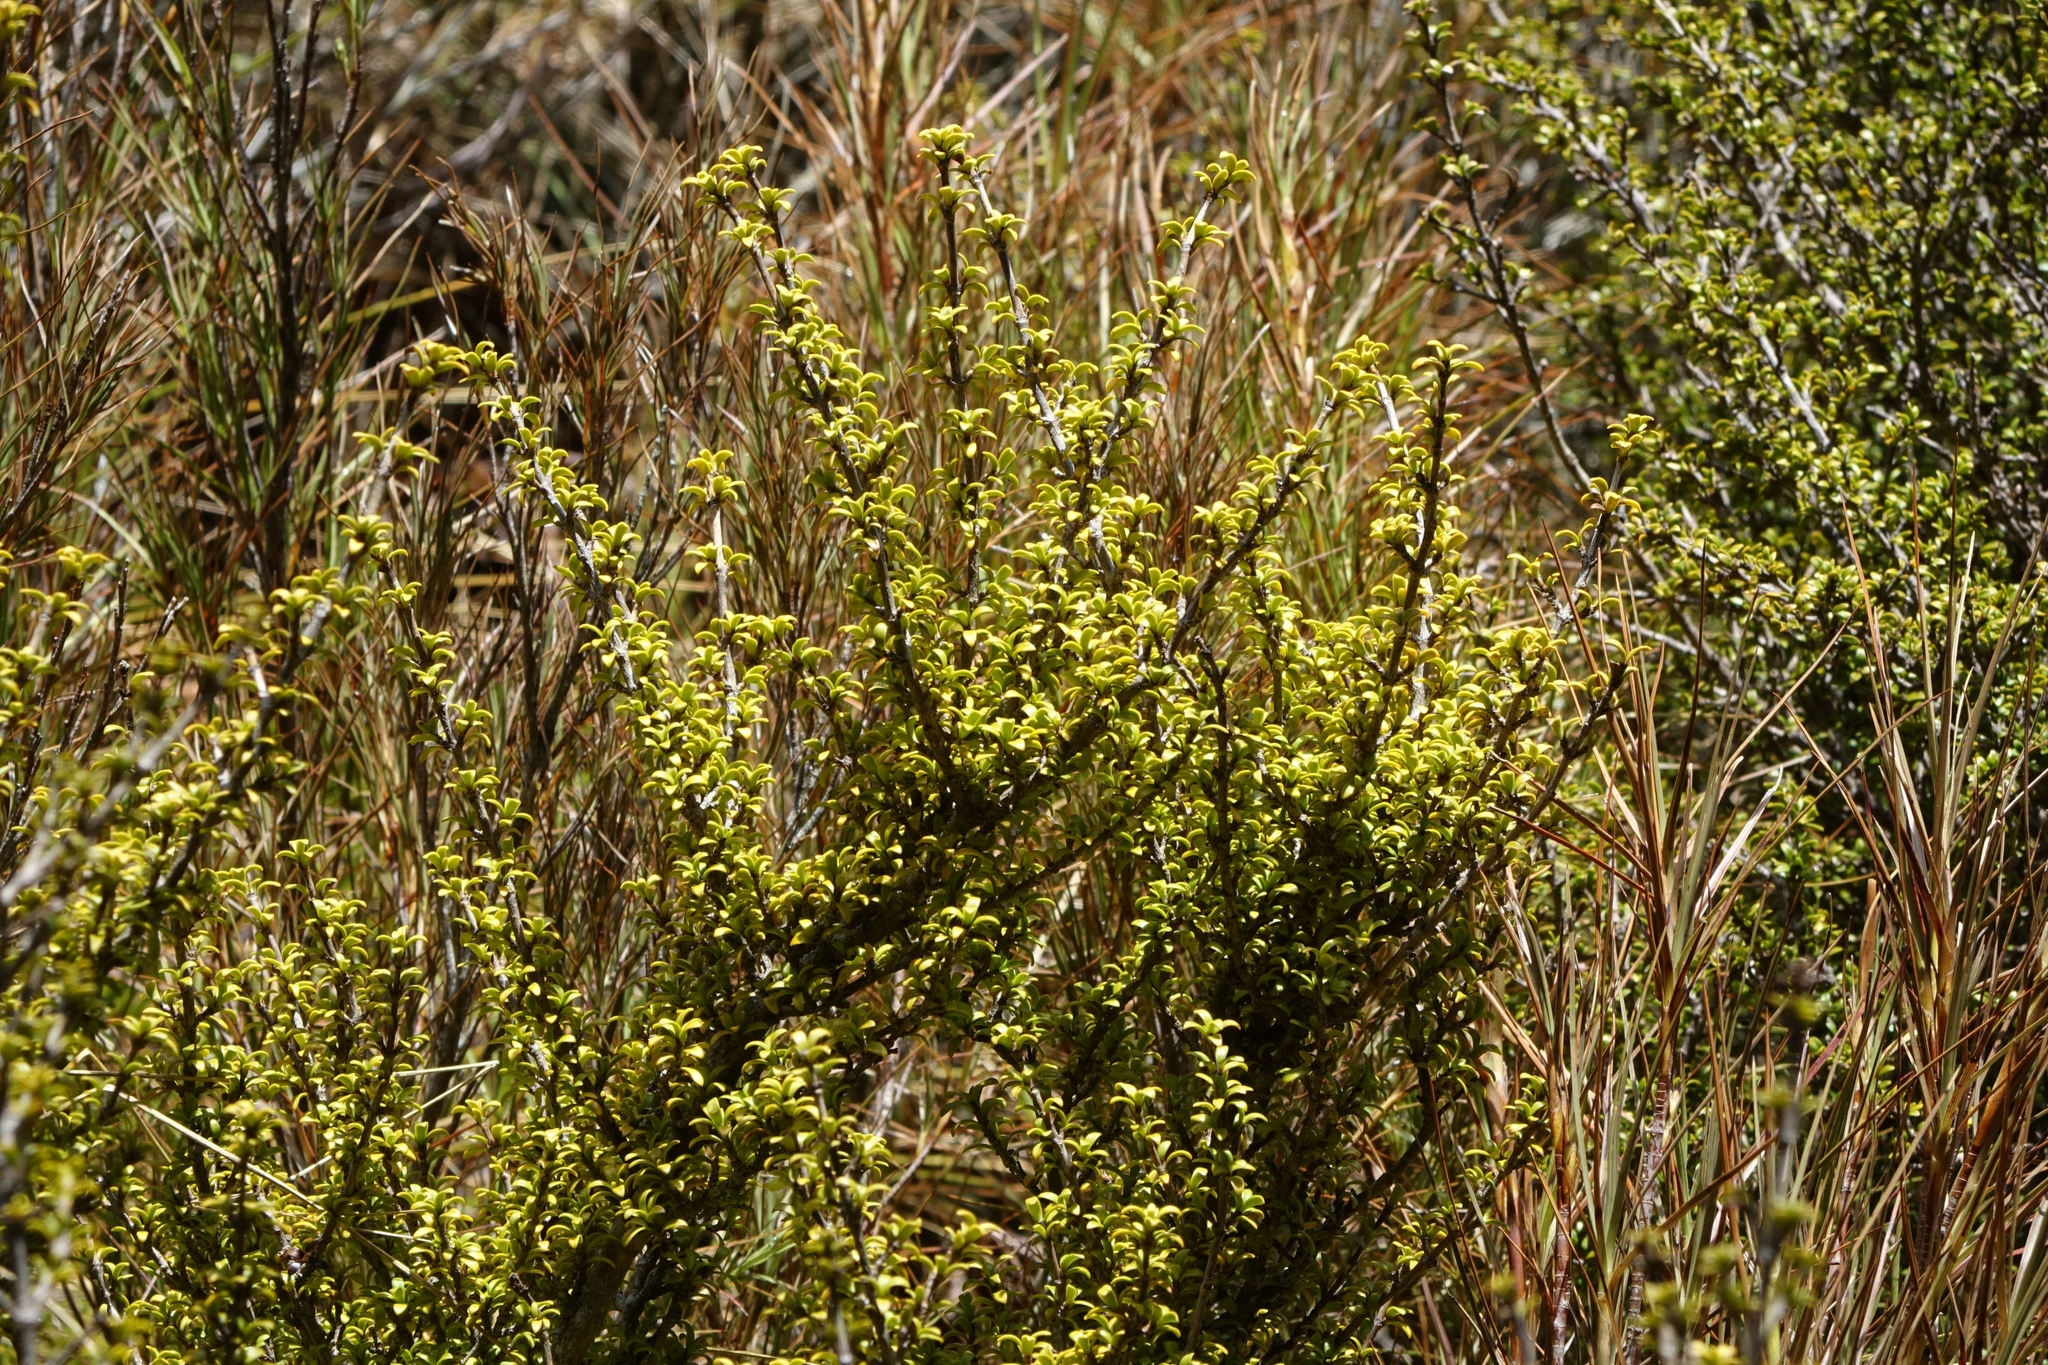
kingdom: Plantae
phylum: Tracheophyta
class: Magnoliopsida
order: Gentianales
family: Rubiaceae
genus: Coprosma
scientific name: Coprosma pseudocuneata
